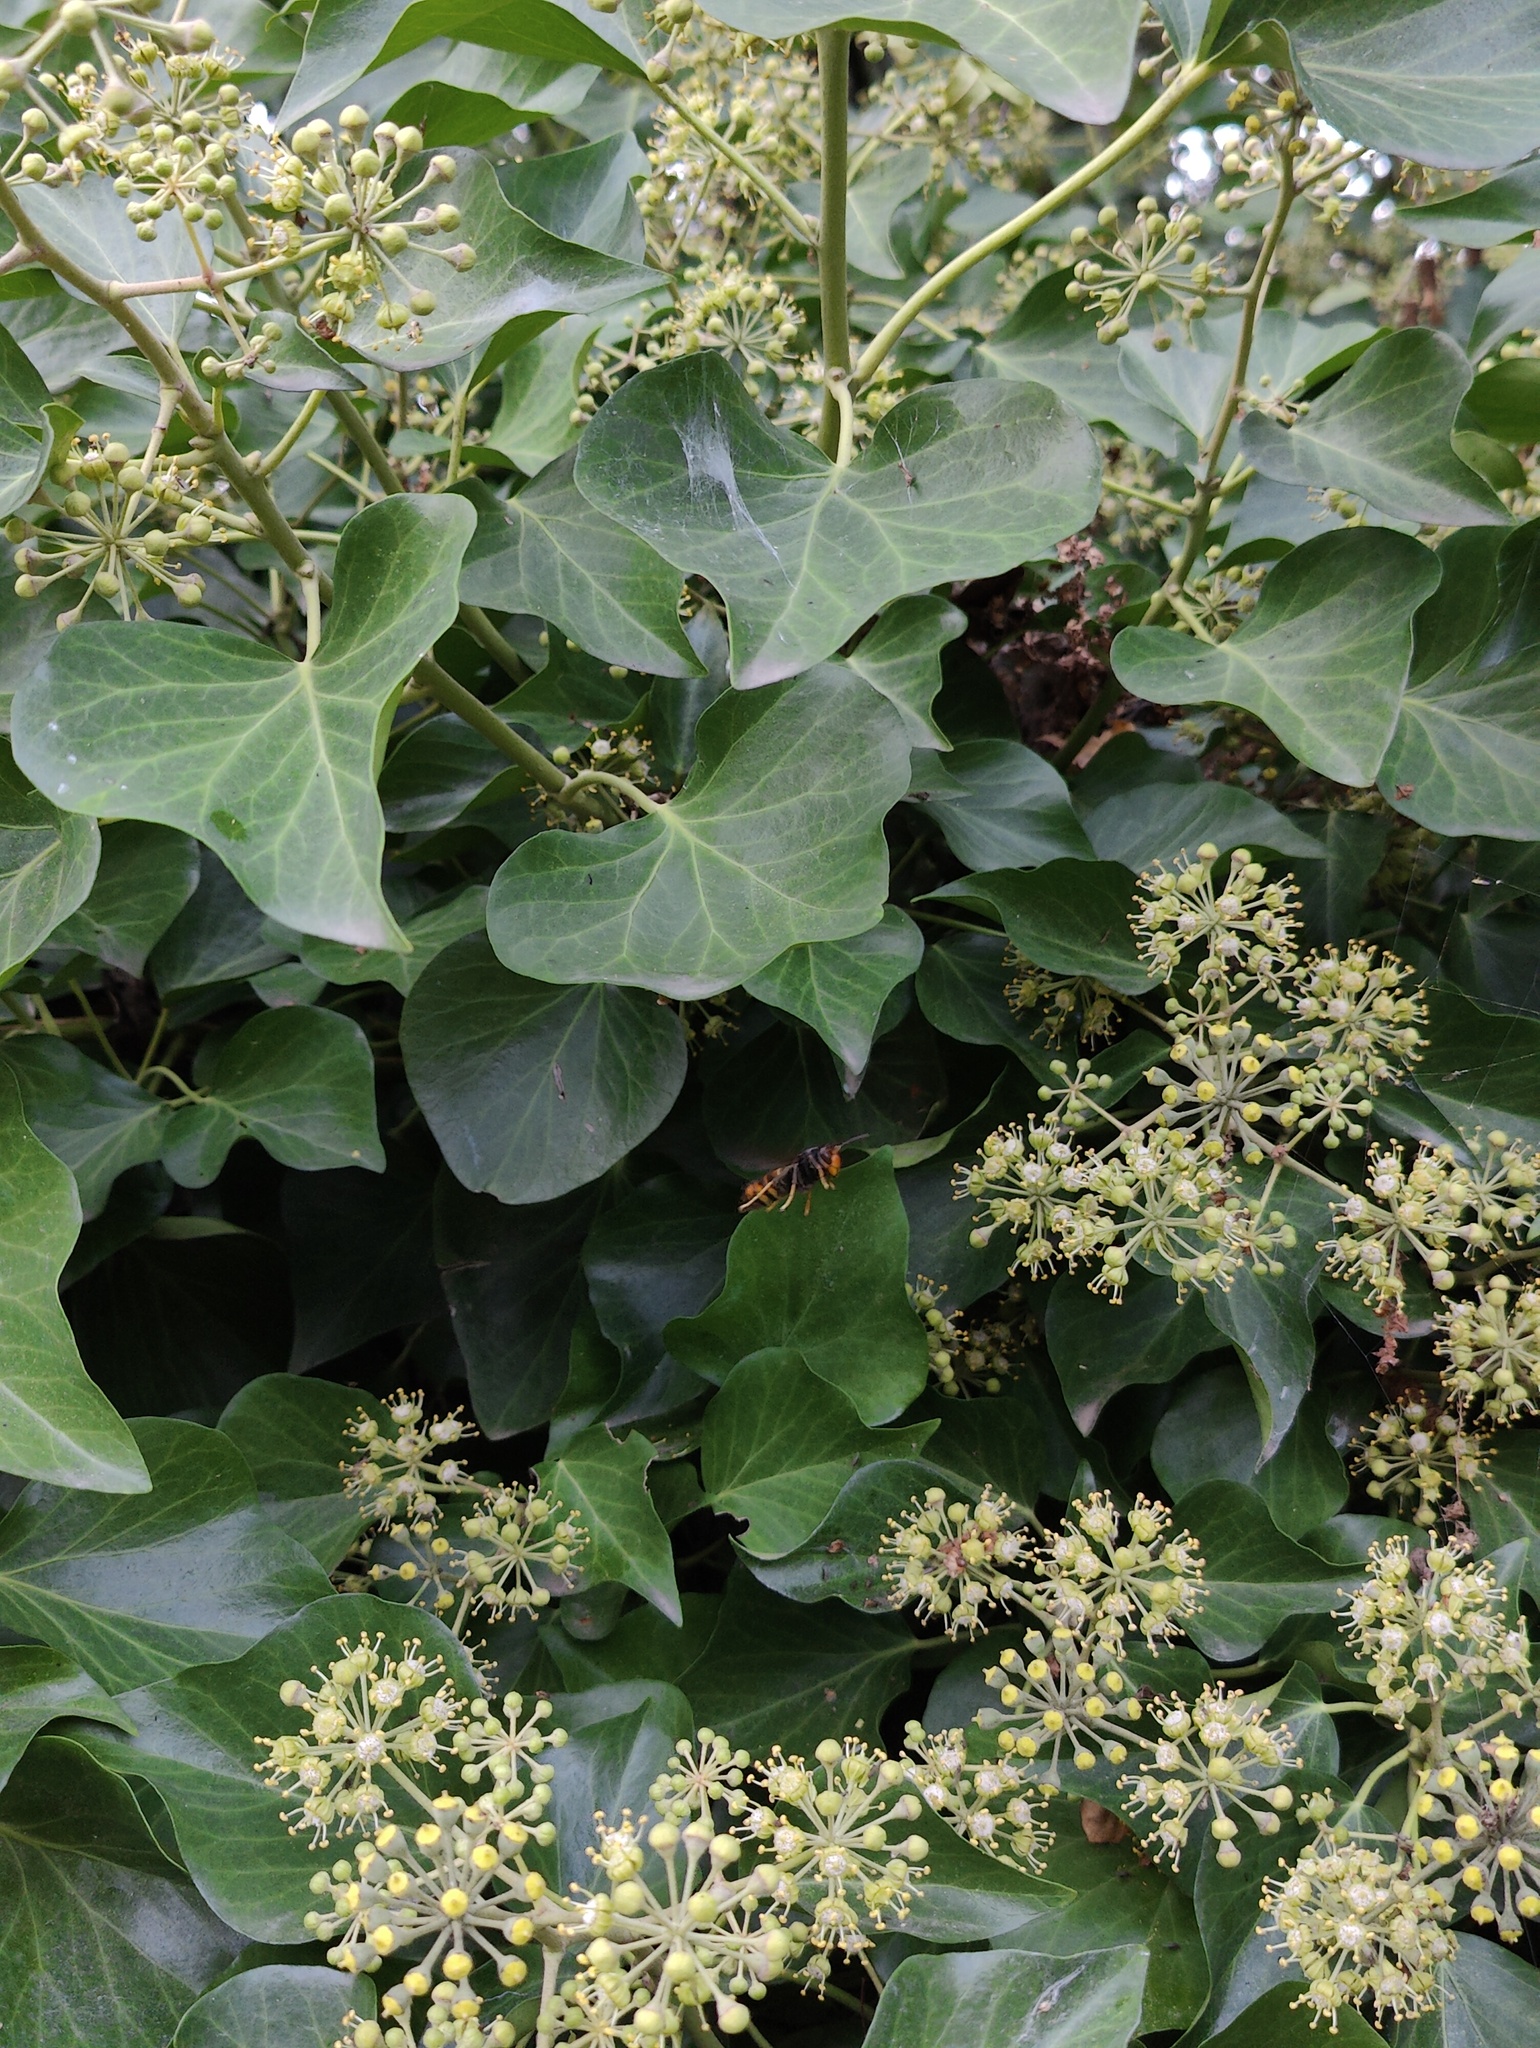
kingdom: Animalia
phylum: Arthropoda
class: Insecta
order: Hymenoptera
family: Vespidae
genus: Vespa
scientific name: Vespa velutina
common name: Asian hornet
